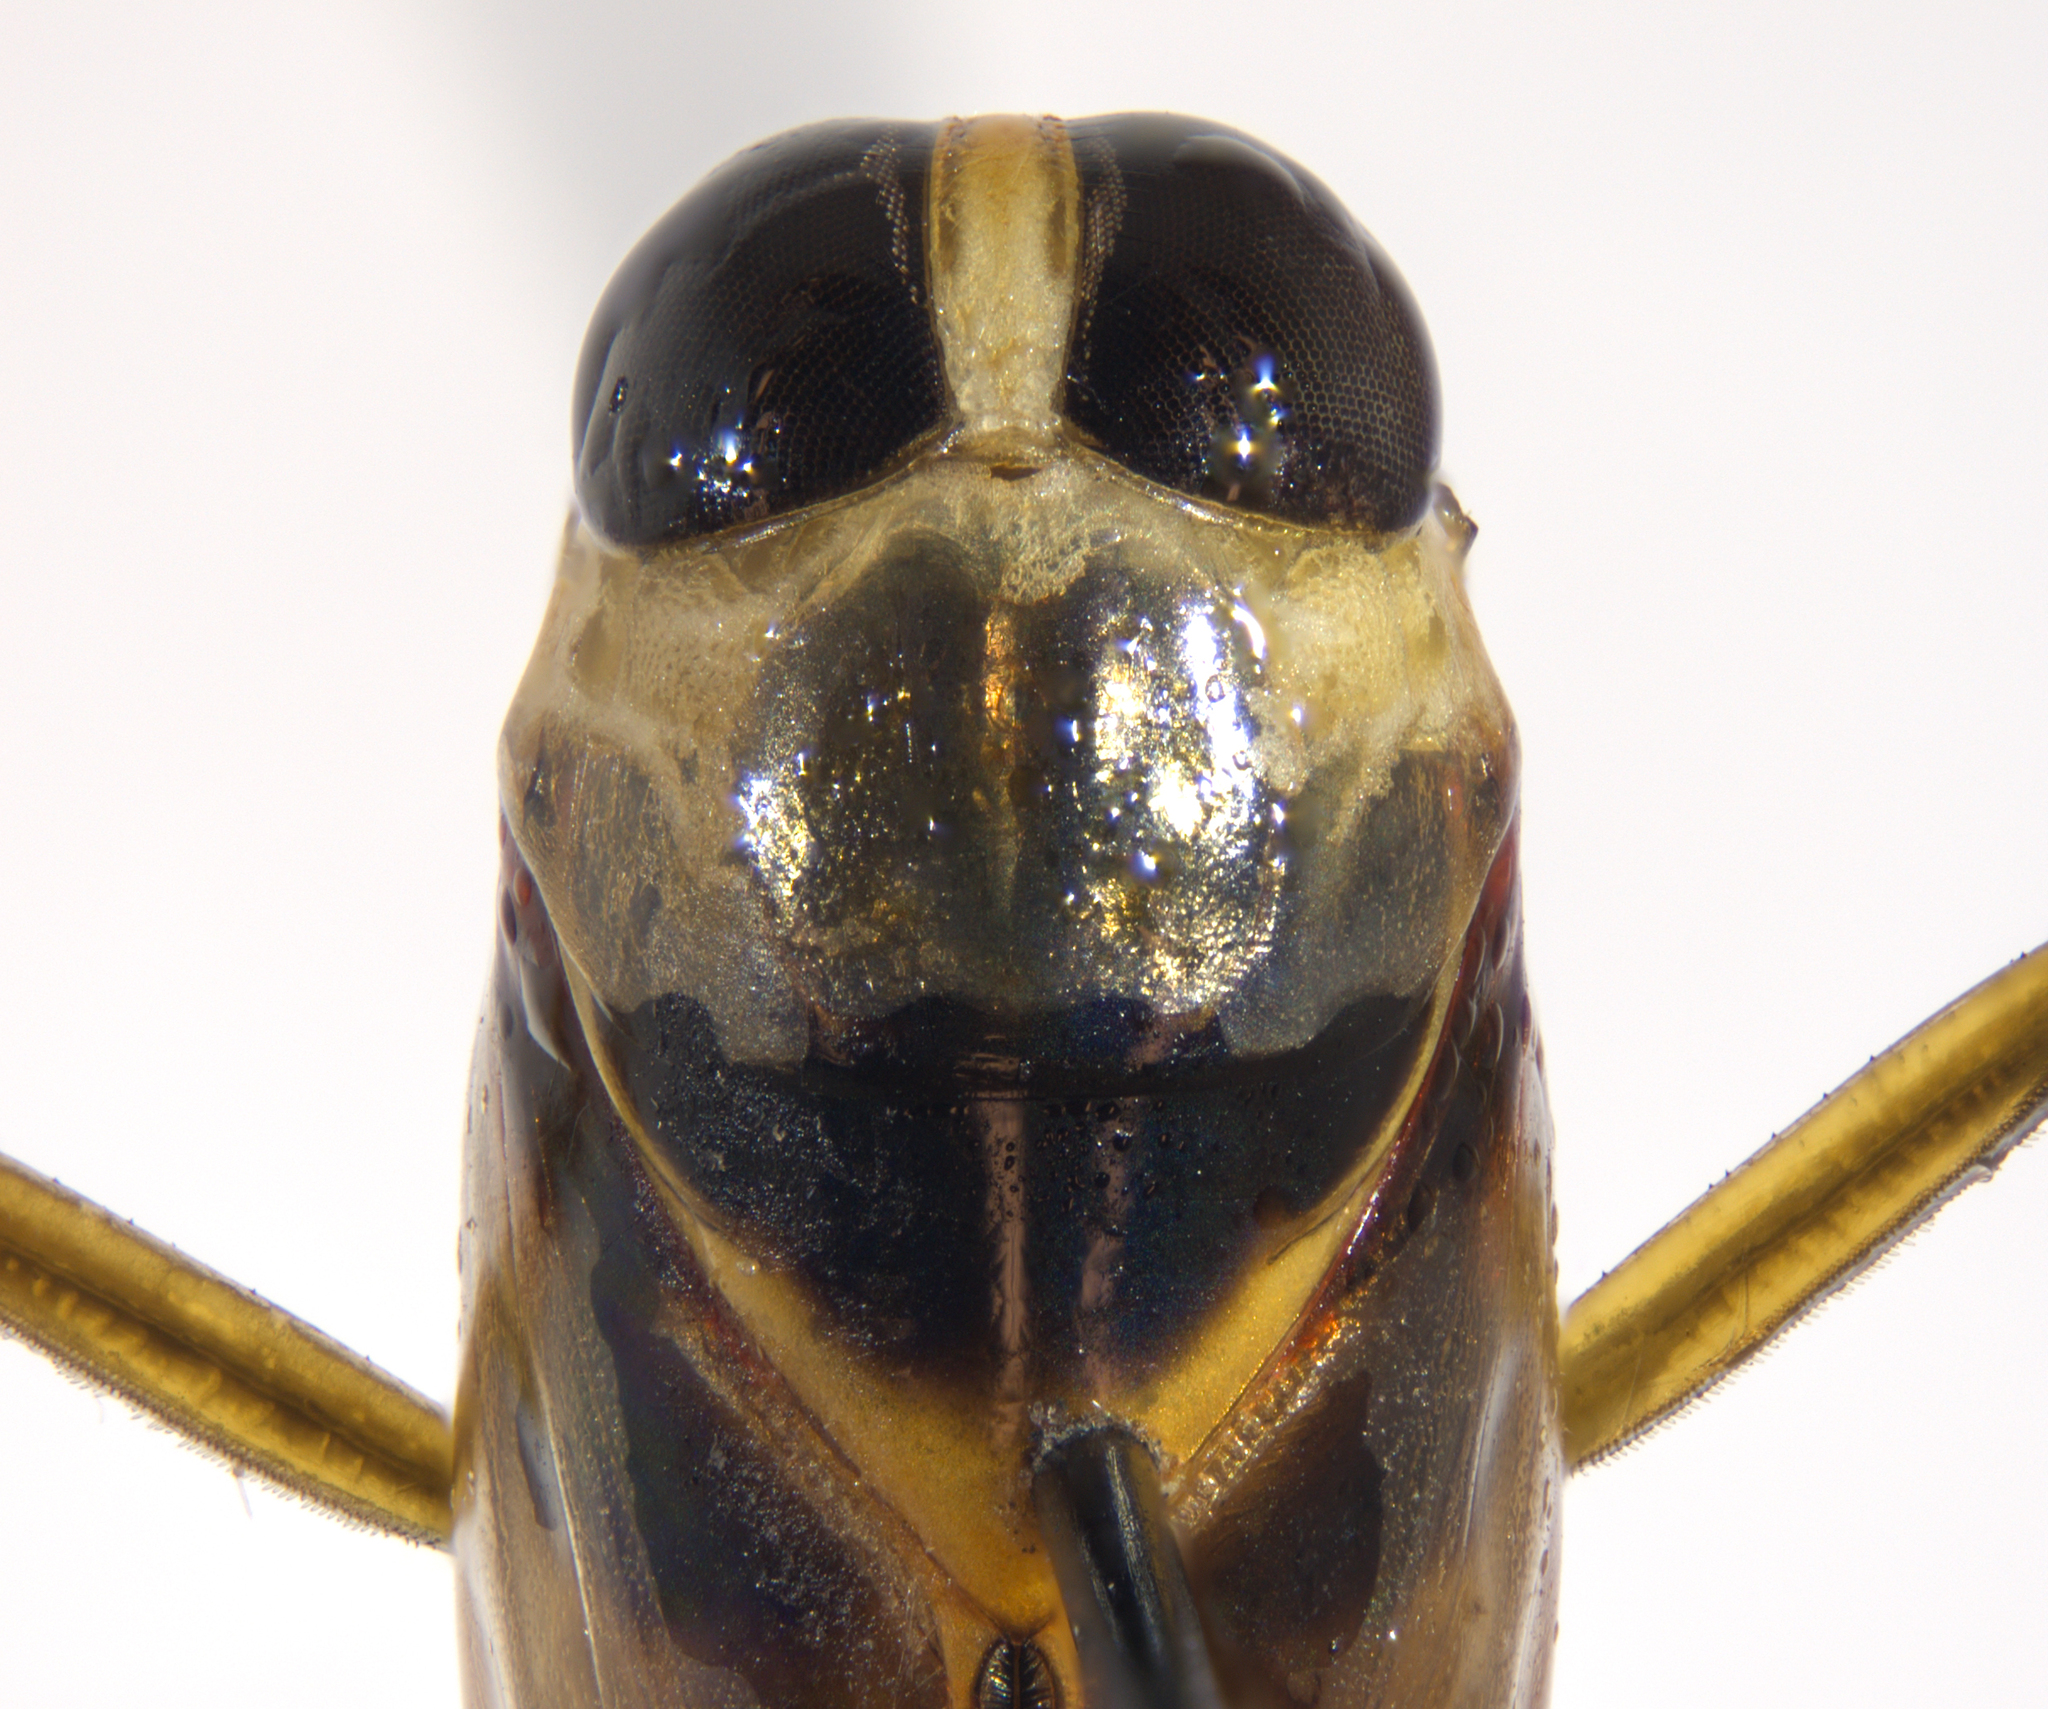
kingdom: Animalia
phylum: Arthropoda
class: Insecta
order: Hemiptera
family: Notonectidae
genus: Buenoa
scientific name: Buenoa arizonis
